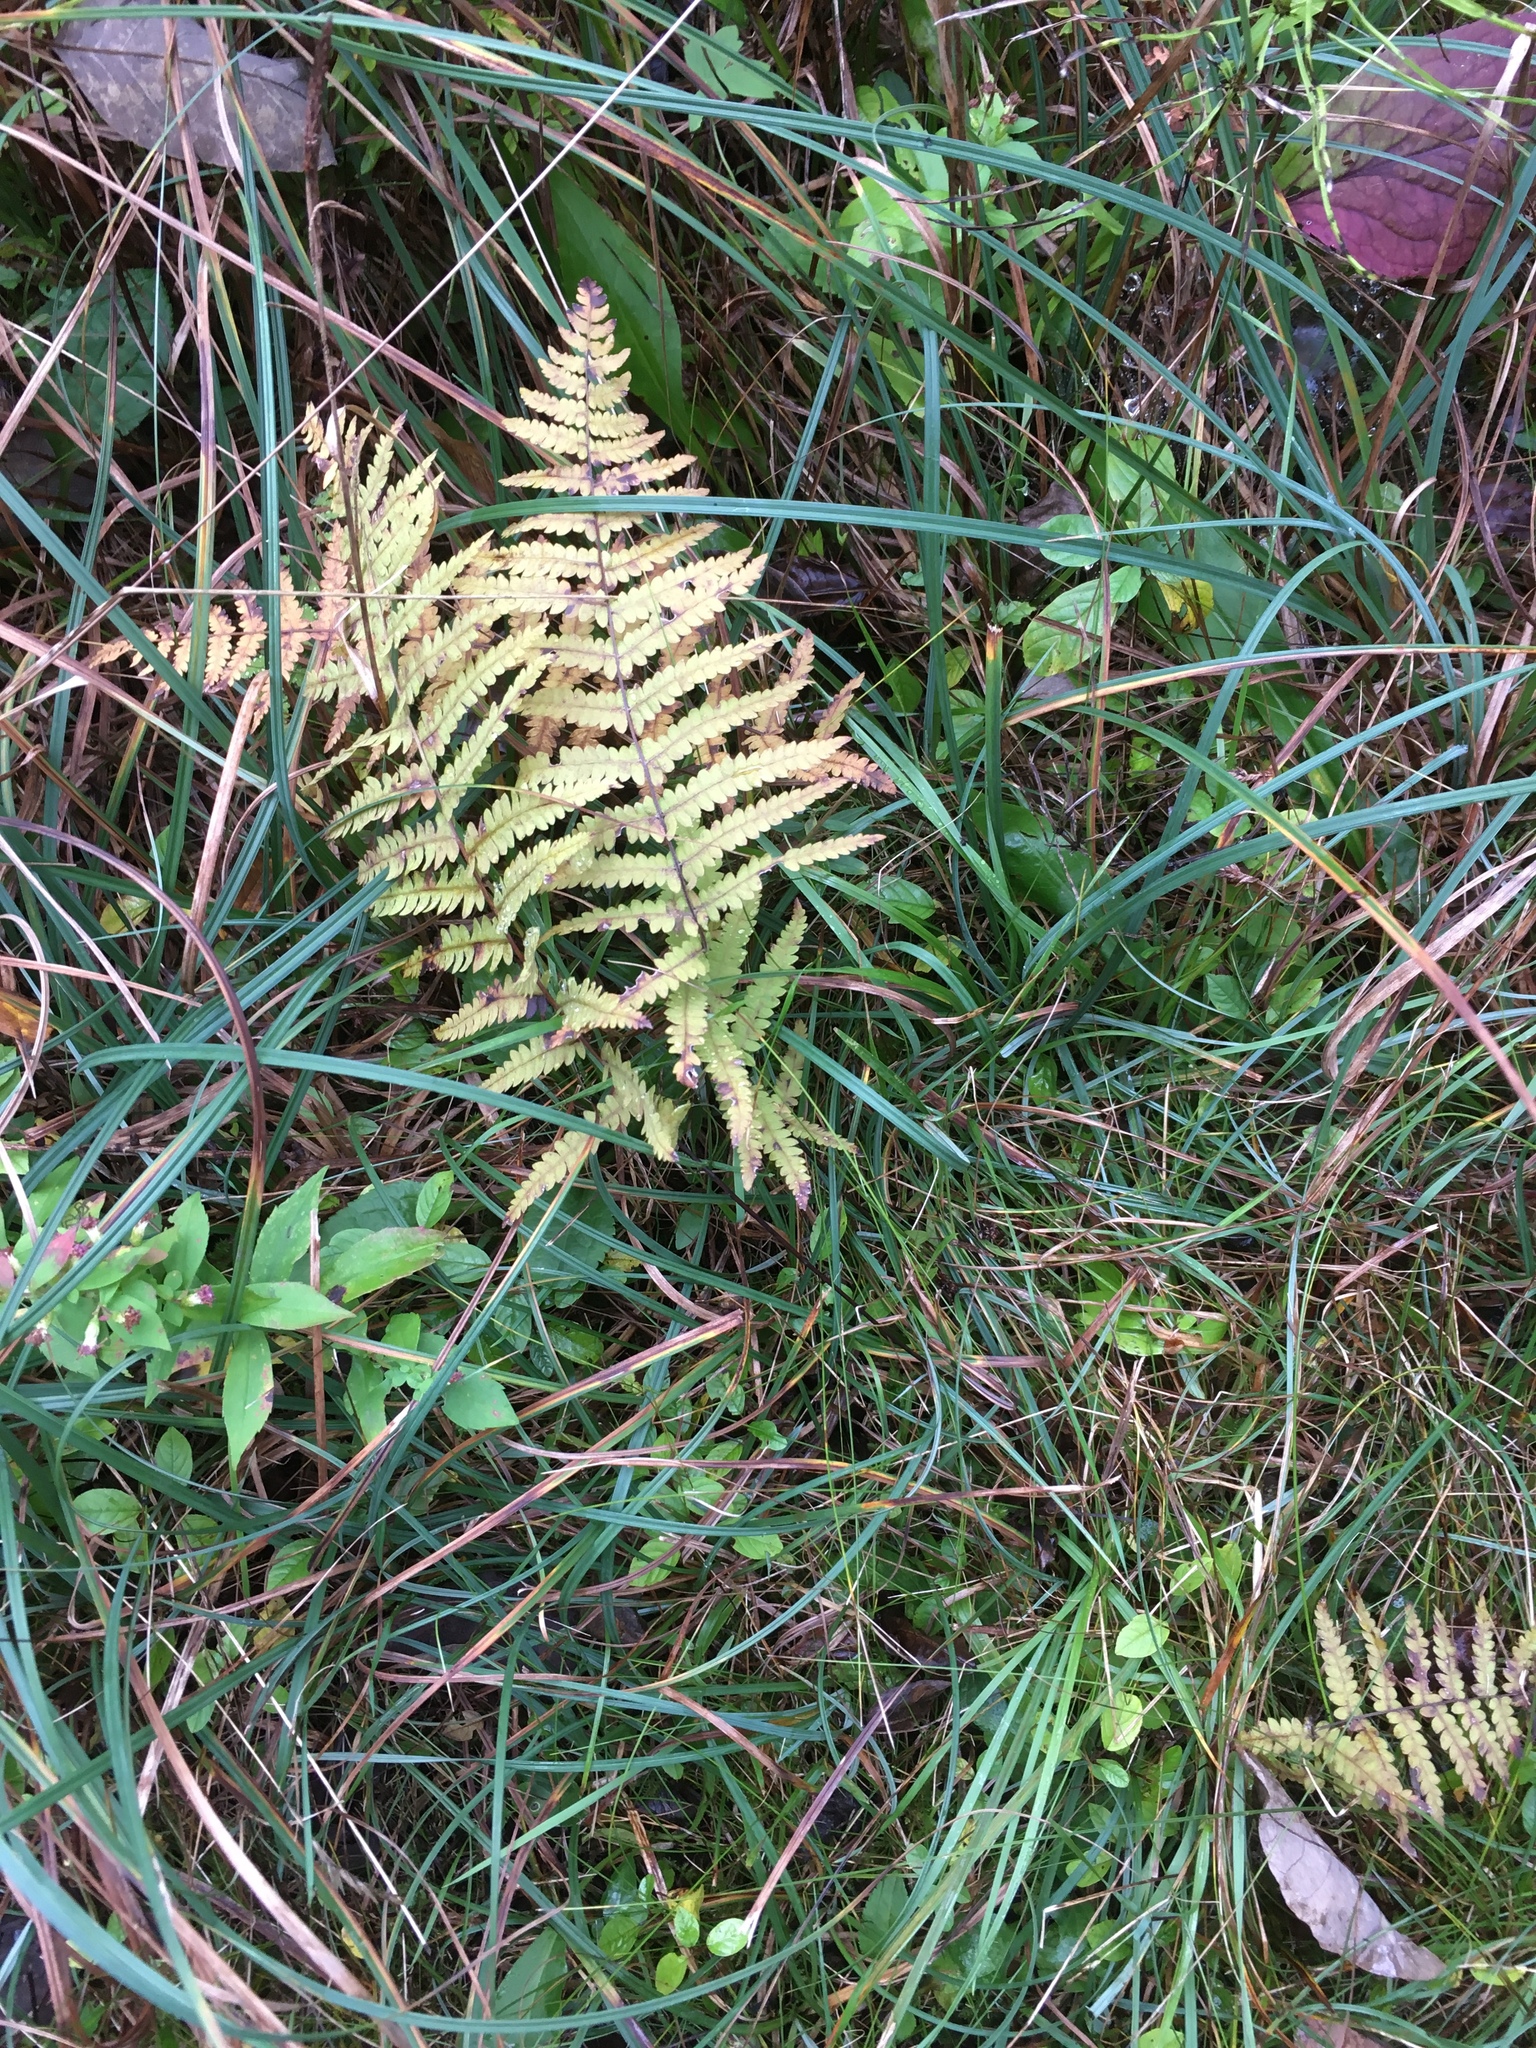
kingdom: Plantae
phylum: Tracheophyta
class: Polypodiopsida
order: Polypodiales
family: Thelypteridaceae
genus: Thelypteris
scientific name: Thelypteris palustris
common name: Marsh fern
